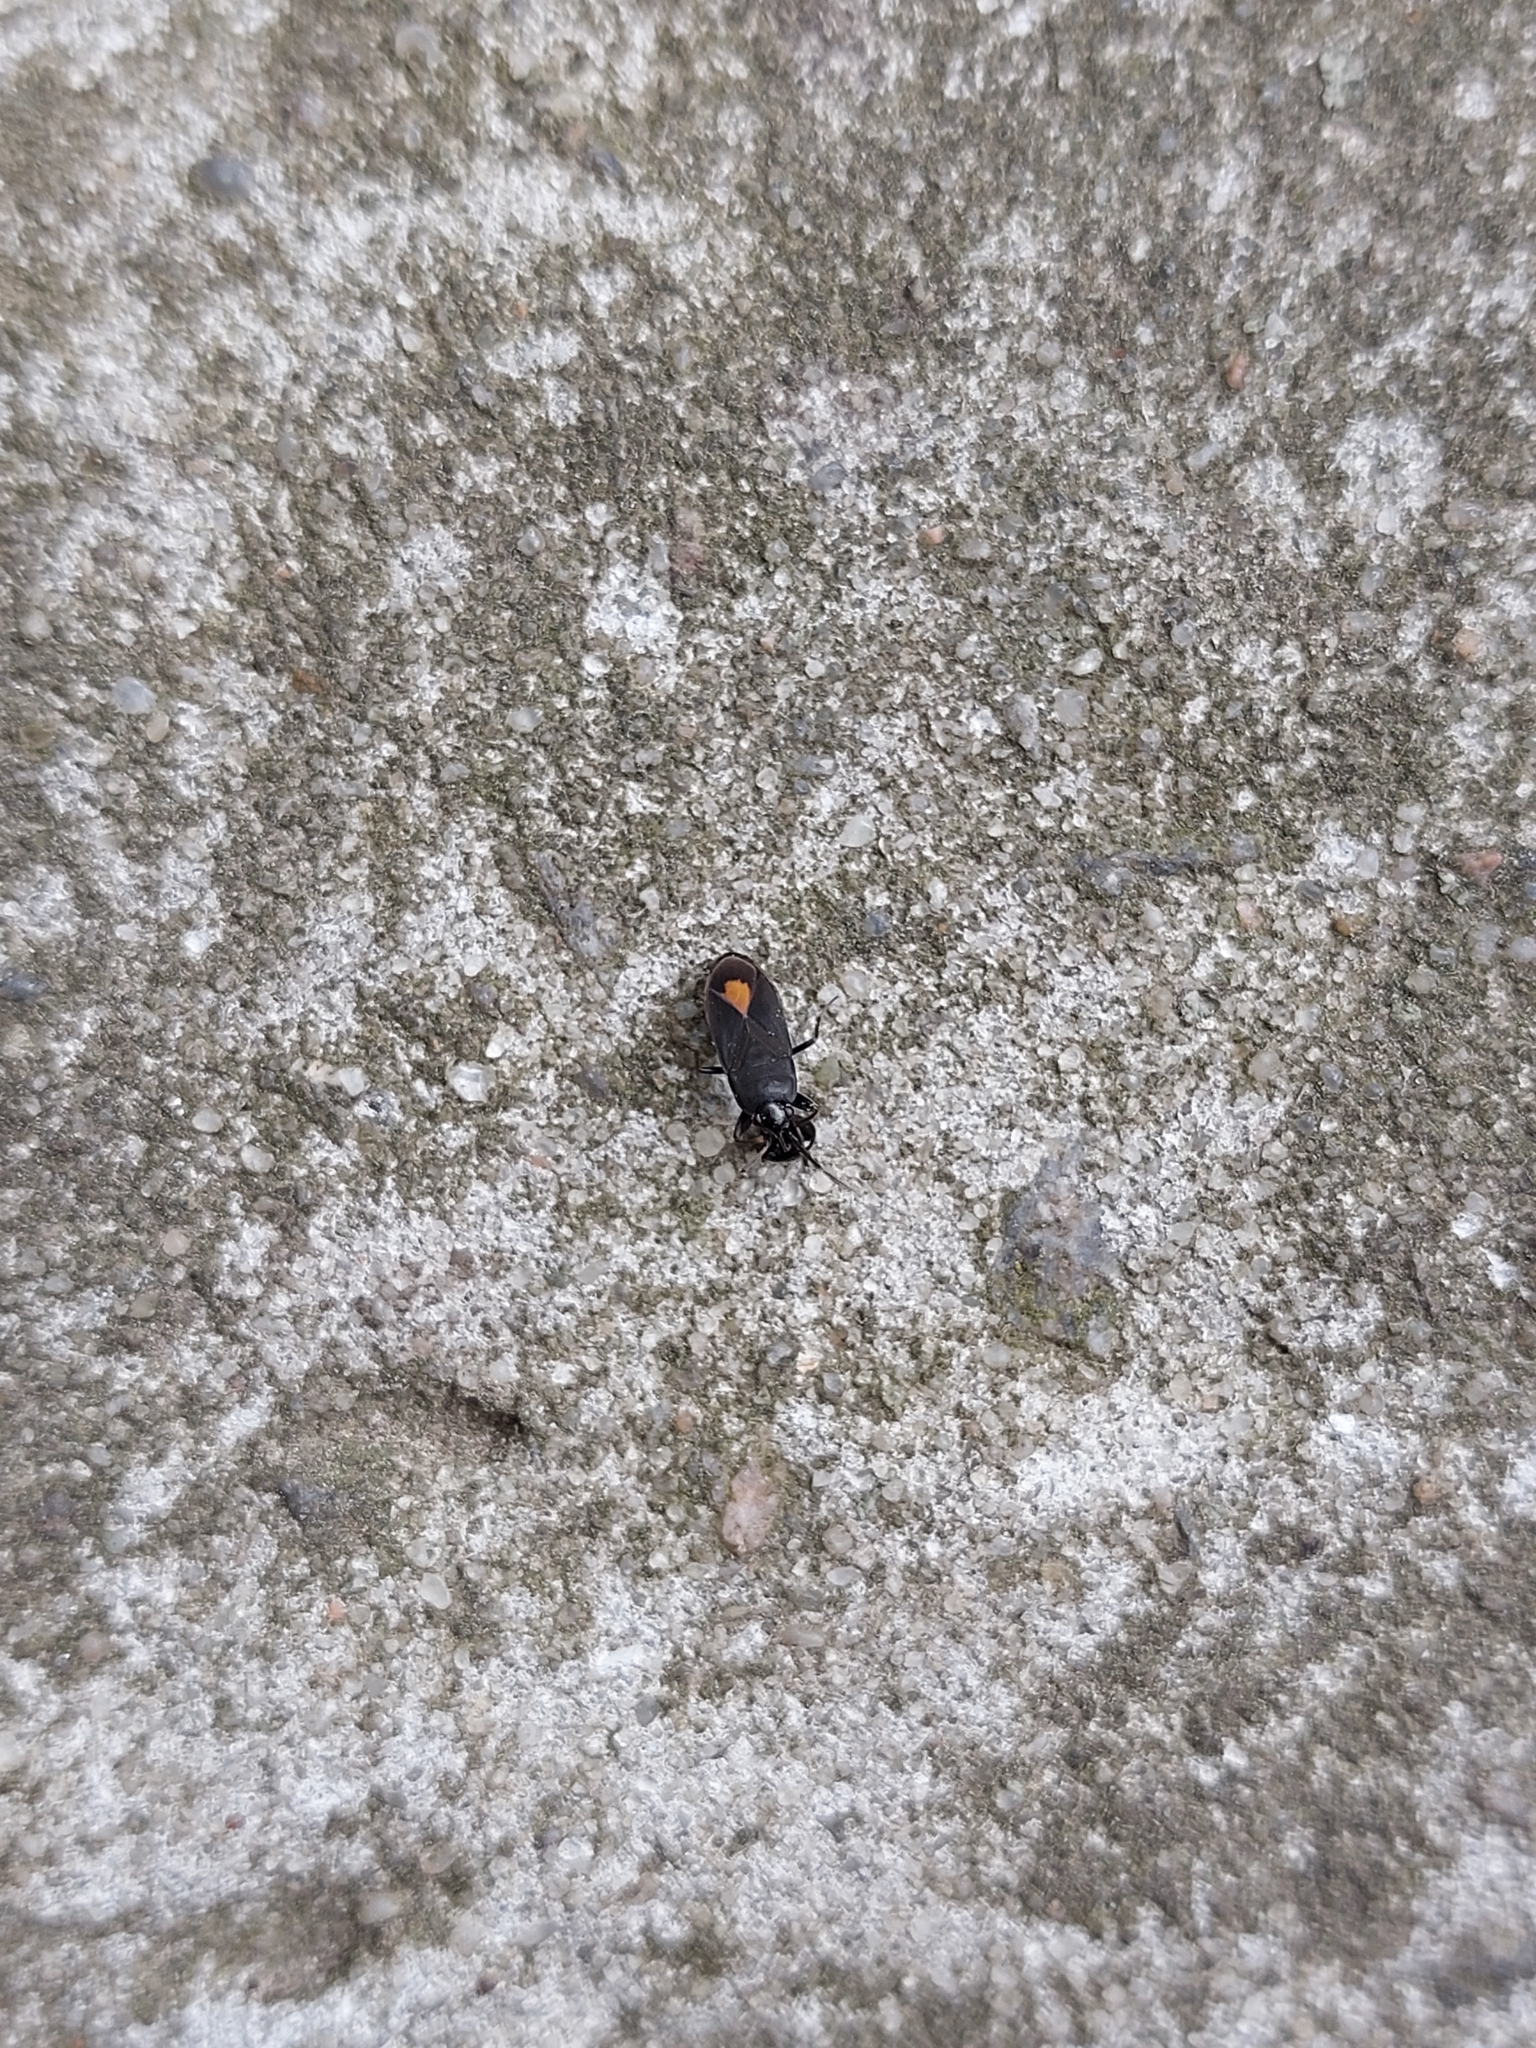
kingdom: Animalia
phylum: Arthropoda
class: Insecta
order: Hemiptera
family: Rhyparochromidae
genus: Aphanus
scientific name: Aphanus rolandri
